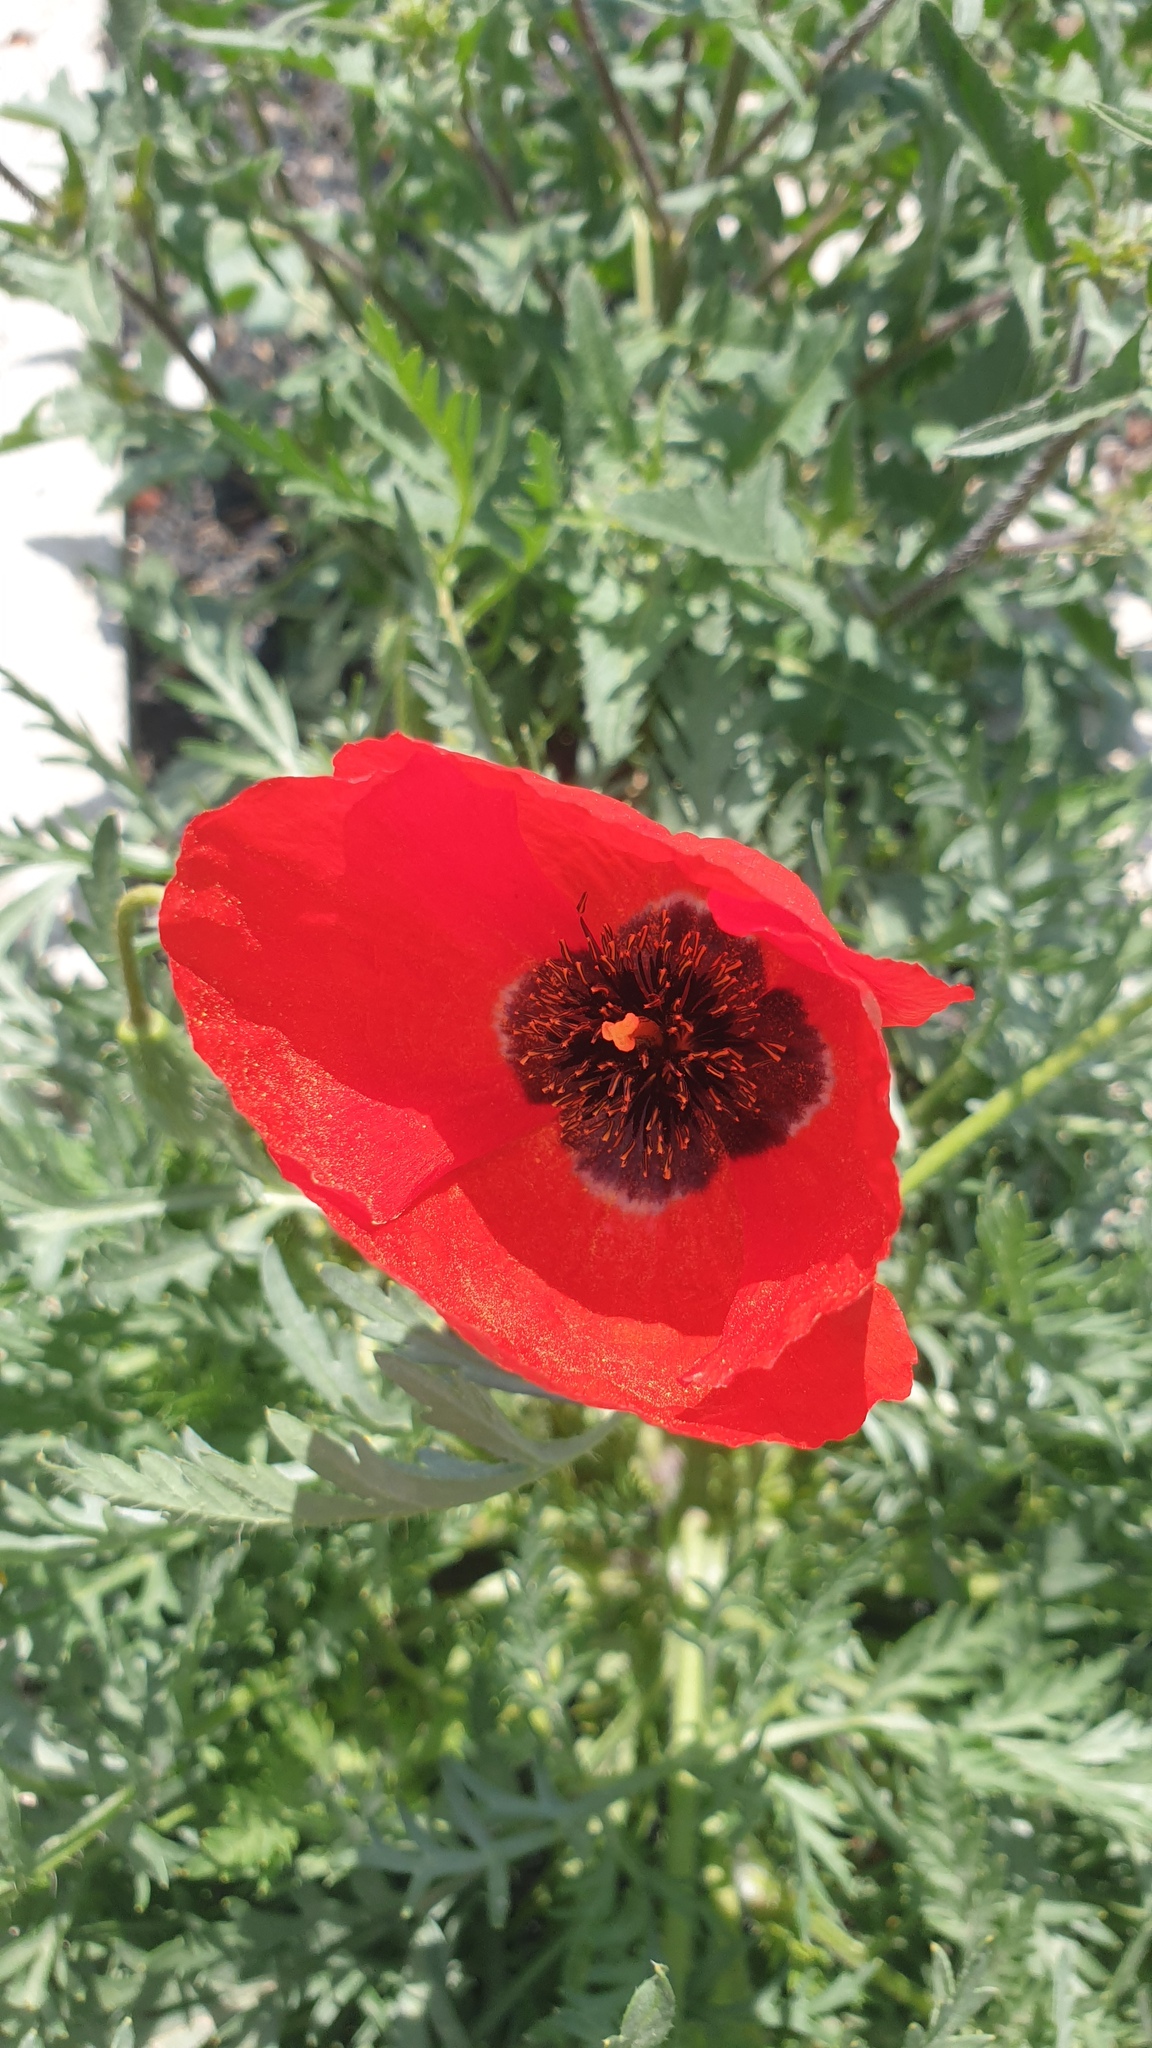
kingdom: Plantae
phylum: Tracheophyta
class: Magnoliopsida
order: Ranunculales
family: Papaveraceae
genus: Roemeria
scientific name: Roemeria refracta
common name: Spotted asian poppy
